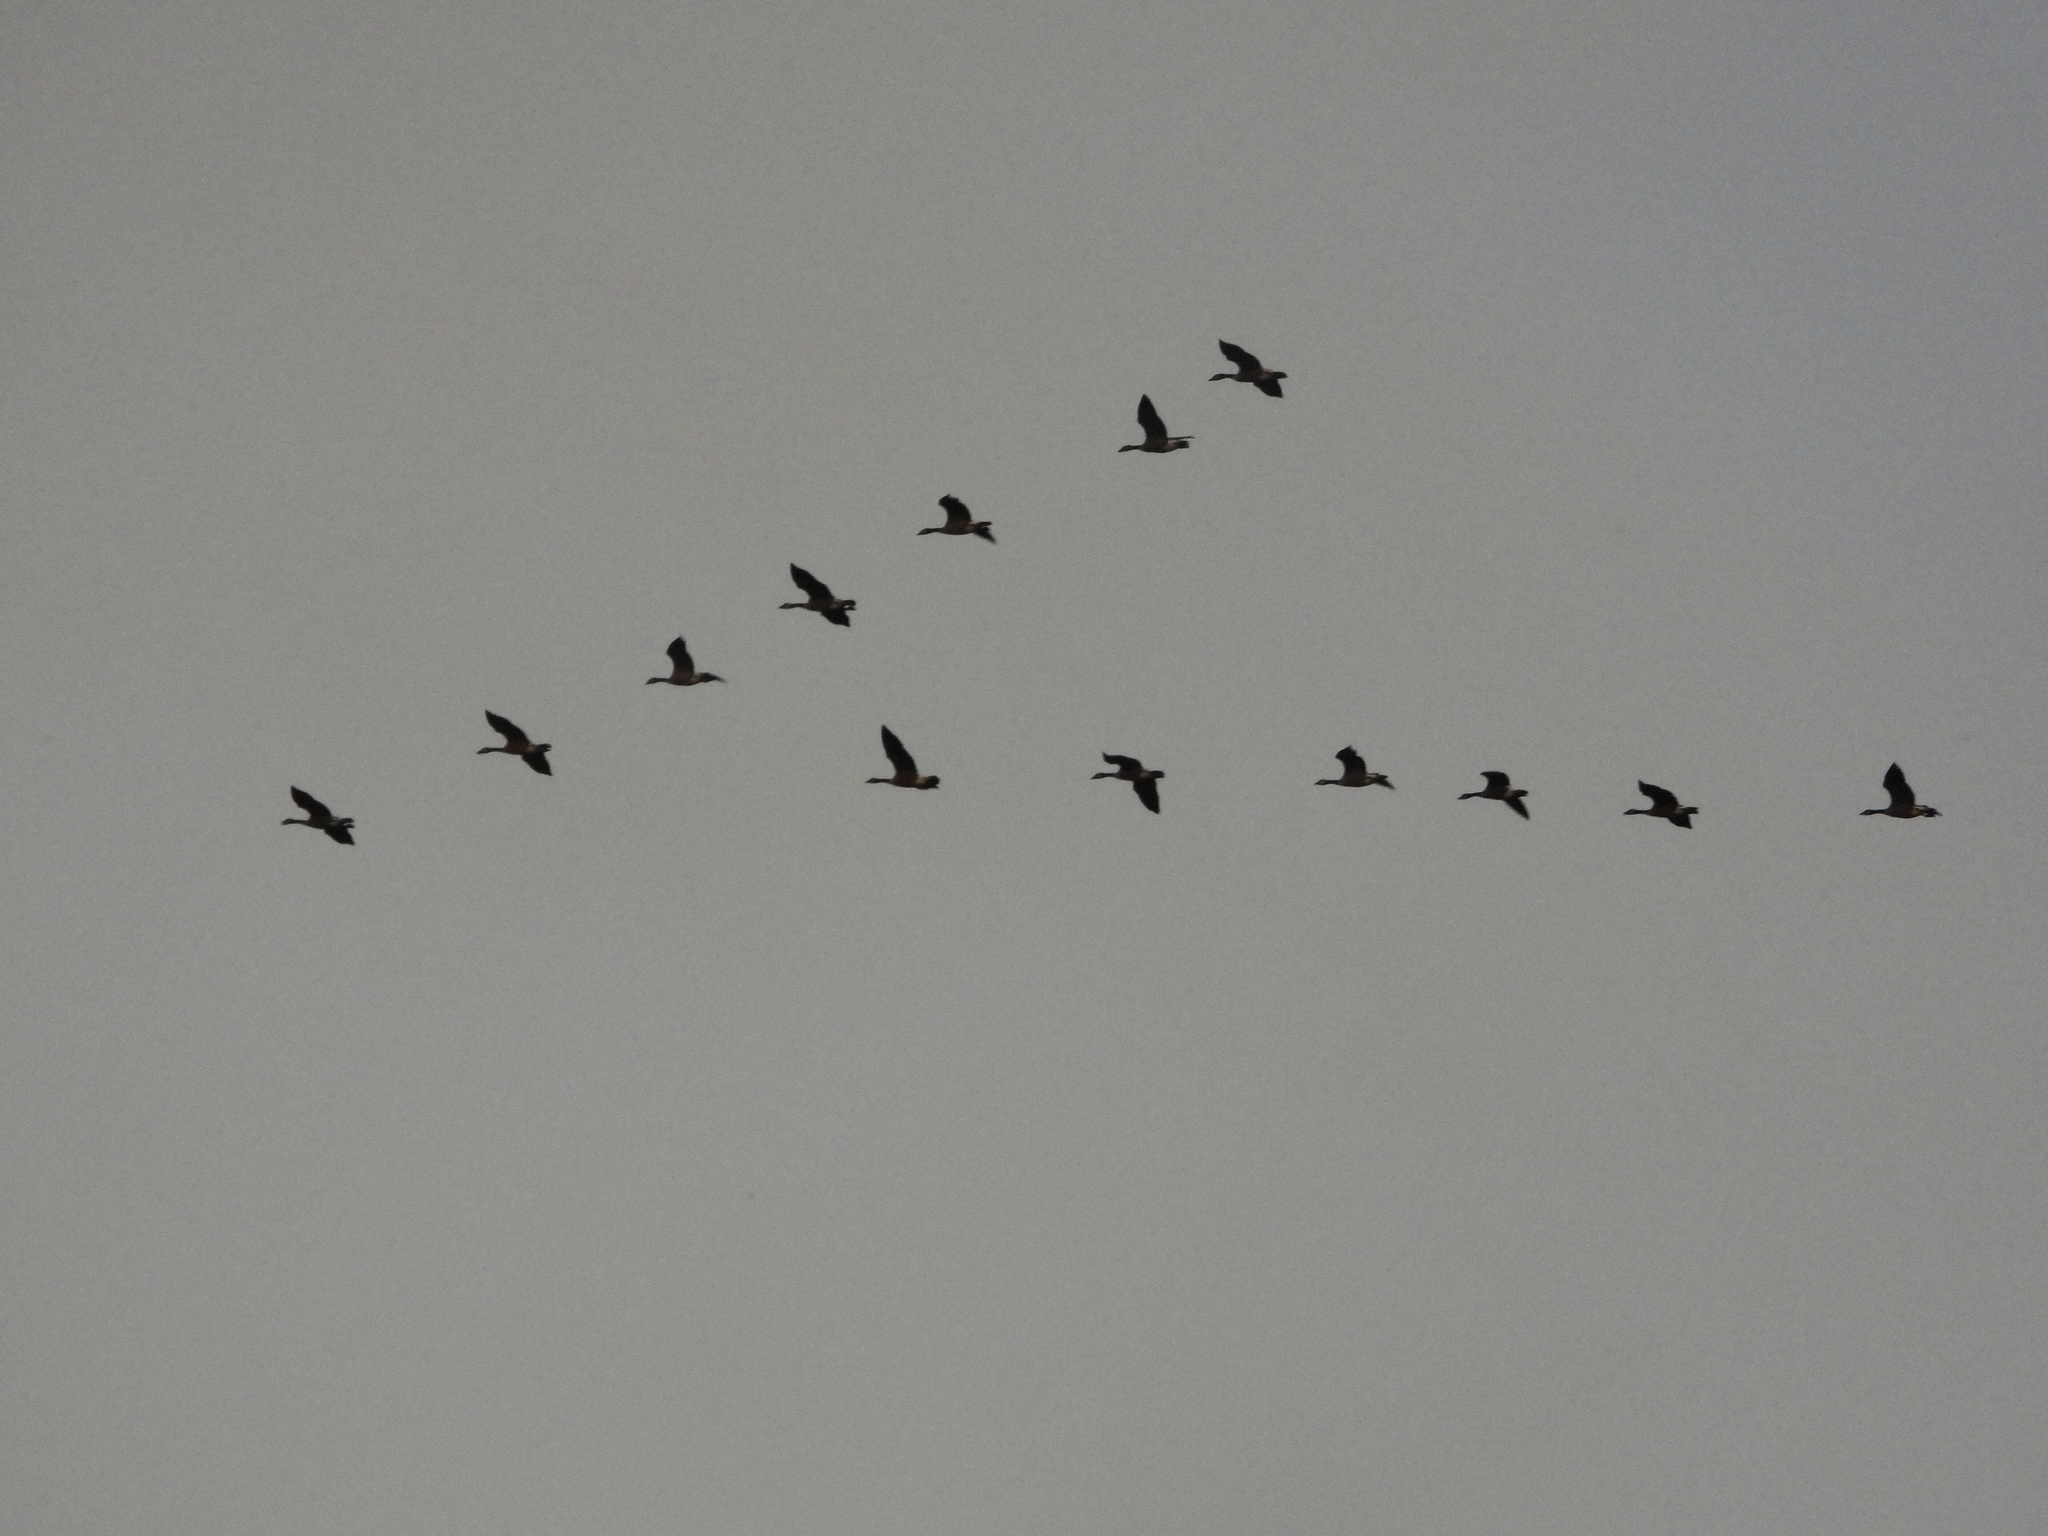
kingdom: Animalia
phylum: Chordata
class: Aves
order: Anseriformes
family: Anatidae
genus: Branta
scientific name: Branta canadensis
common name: Canada goose
